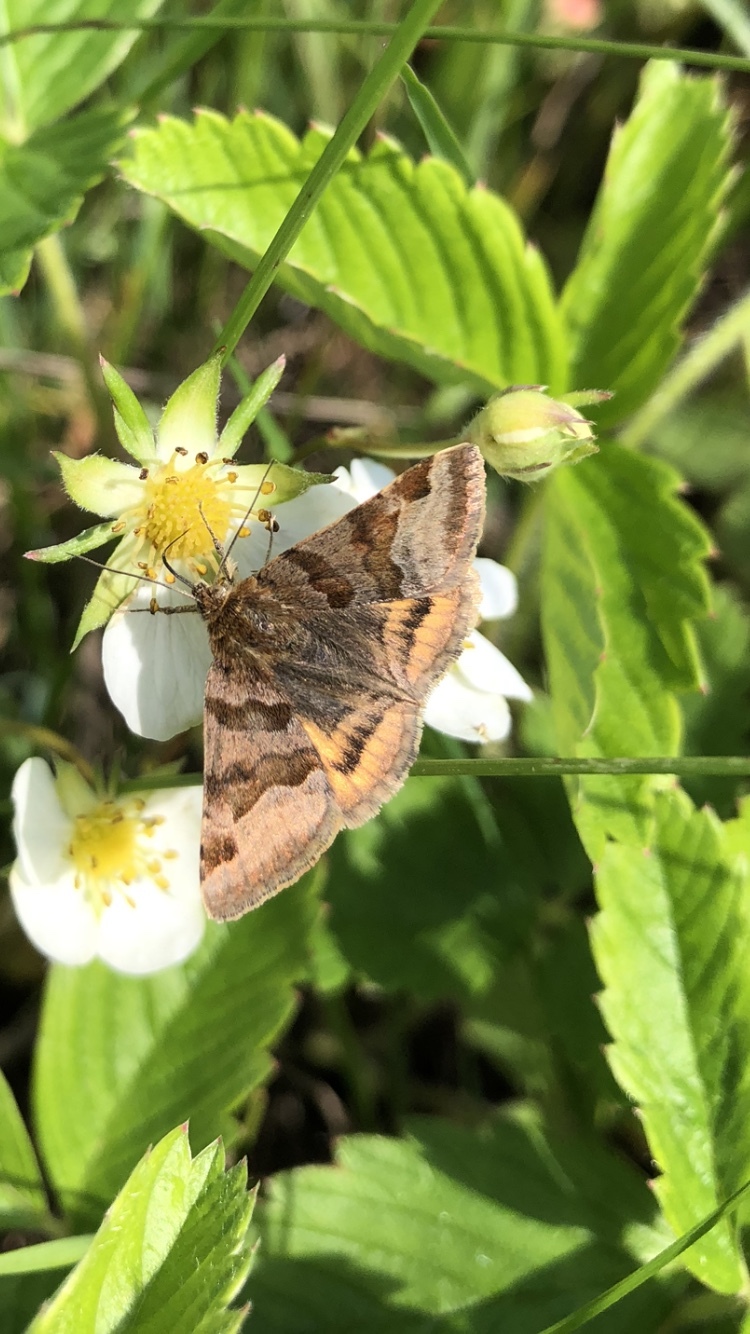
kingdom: Animalia
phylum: Arthropoda
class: Insecta
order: Lepidoptera
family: Erebidae
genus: Euclidia
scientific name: Euclidia glyphica
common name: Burnet companion
